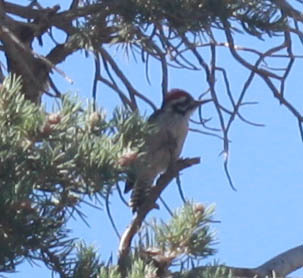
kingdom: Animalia
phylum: Chordata
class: Aves
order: Piciformes
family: Picidae
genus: Dryobates
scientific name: Dryobates scalaris
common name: Ladder-backed woodpecker
